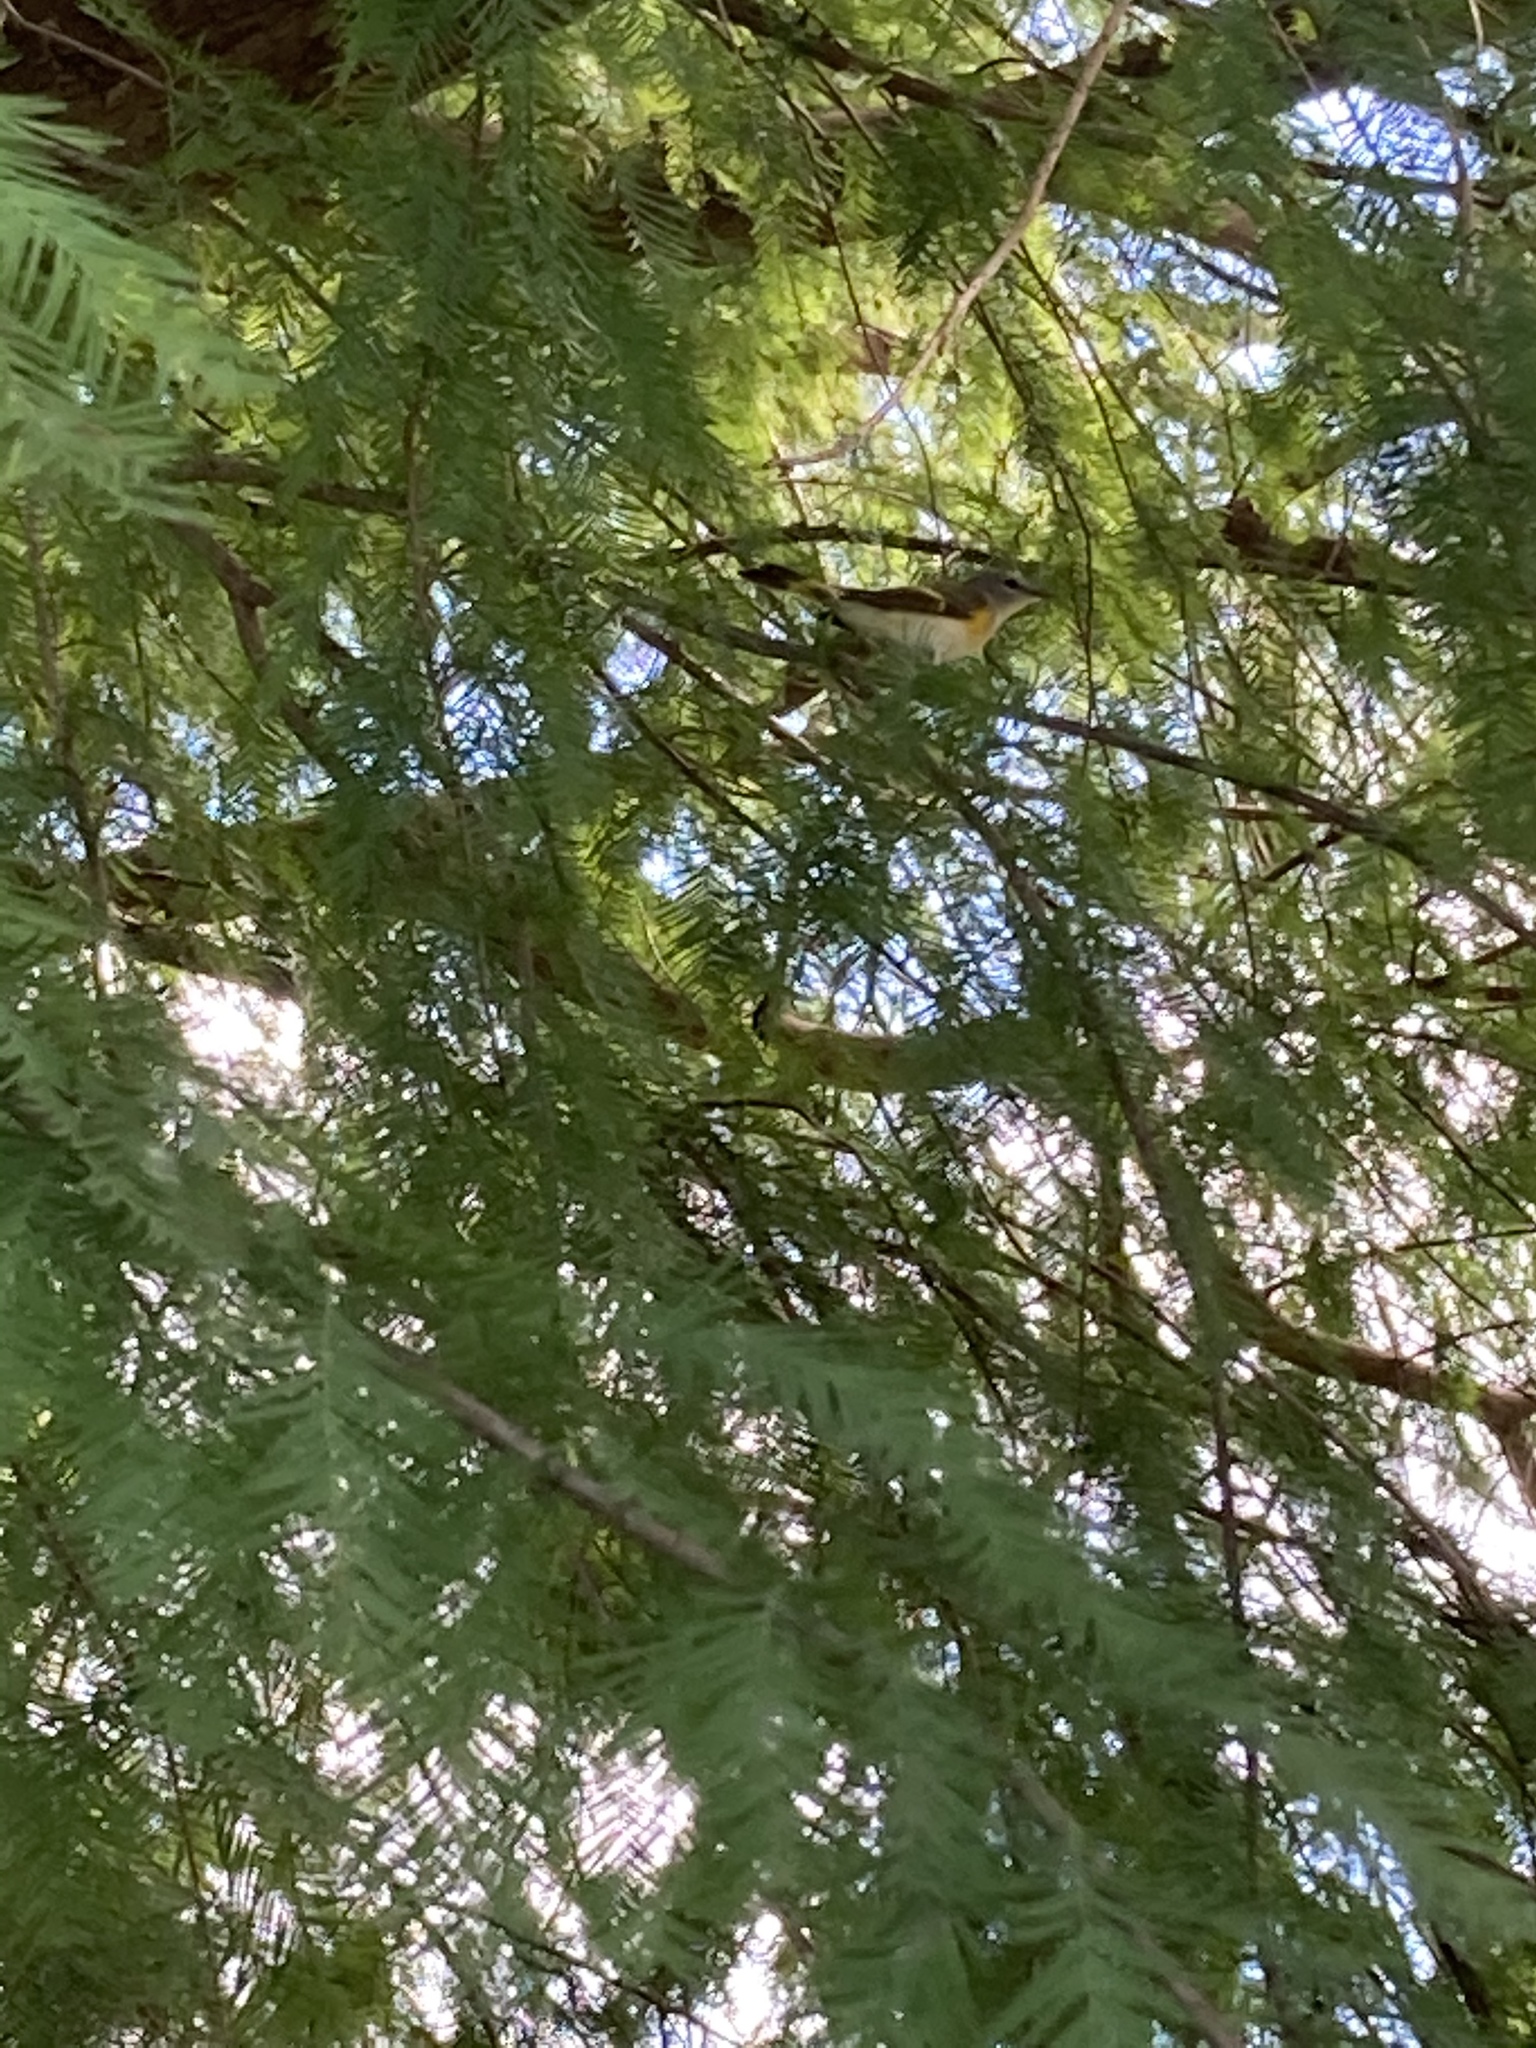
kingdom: Animalia
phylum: Chordata
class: Aves
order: Passeriformes
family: Parulidae
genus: Setophaga
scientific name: Setophaga ruticilla
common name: American redstart
